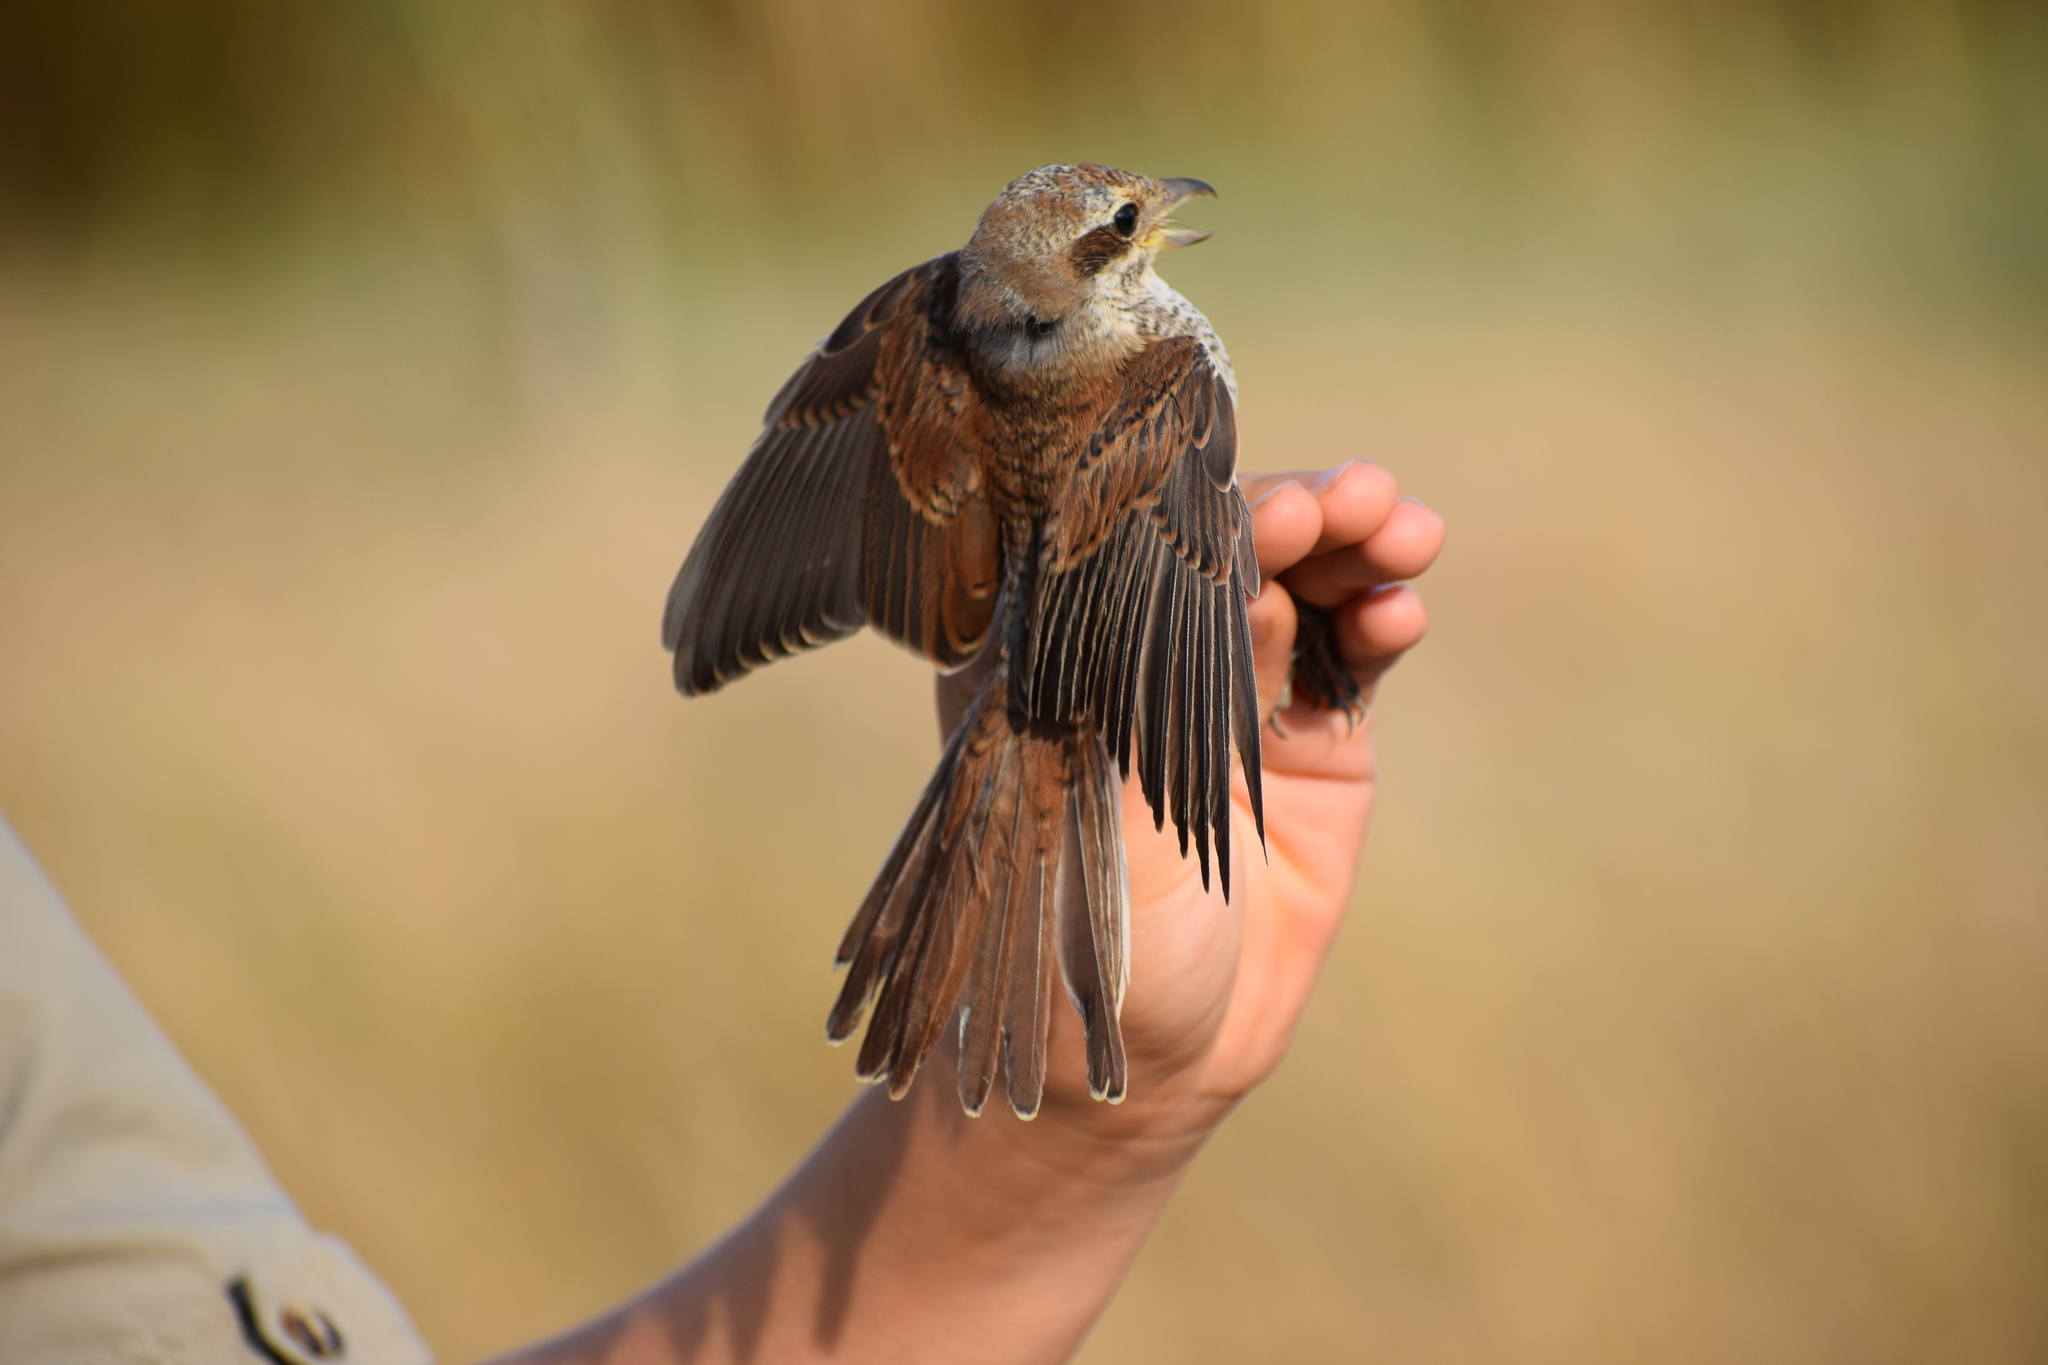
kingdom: Animalia
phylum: Chordata
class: Aves
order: Passeriformes
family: Laniidae
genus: Lanius
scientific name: Lanius collurio
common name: Red-backed shrike
